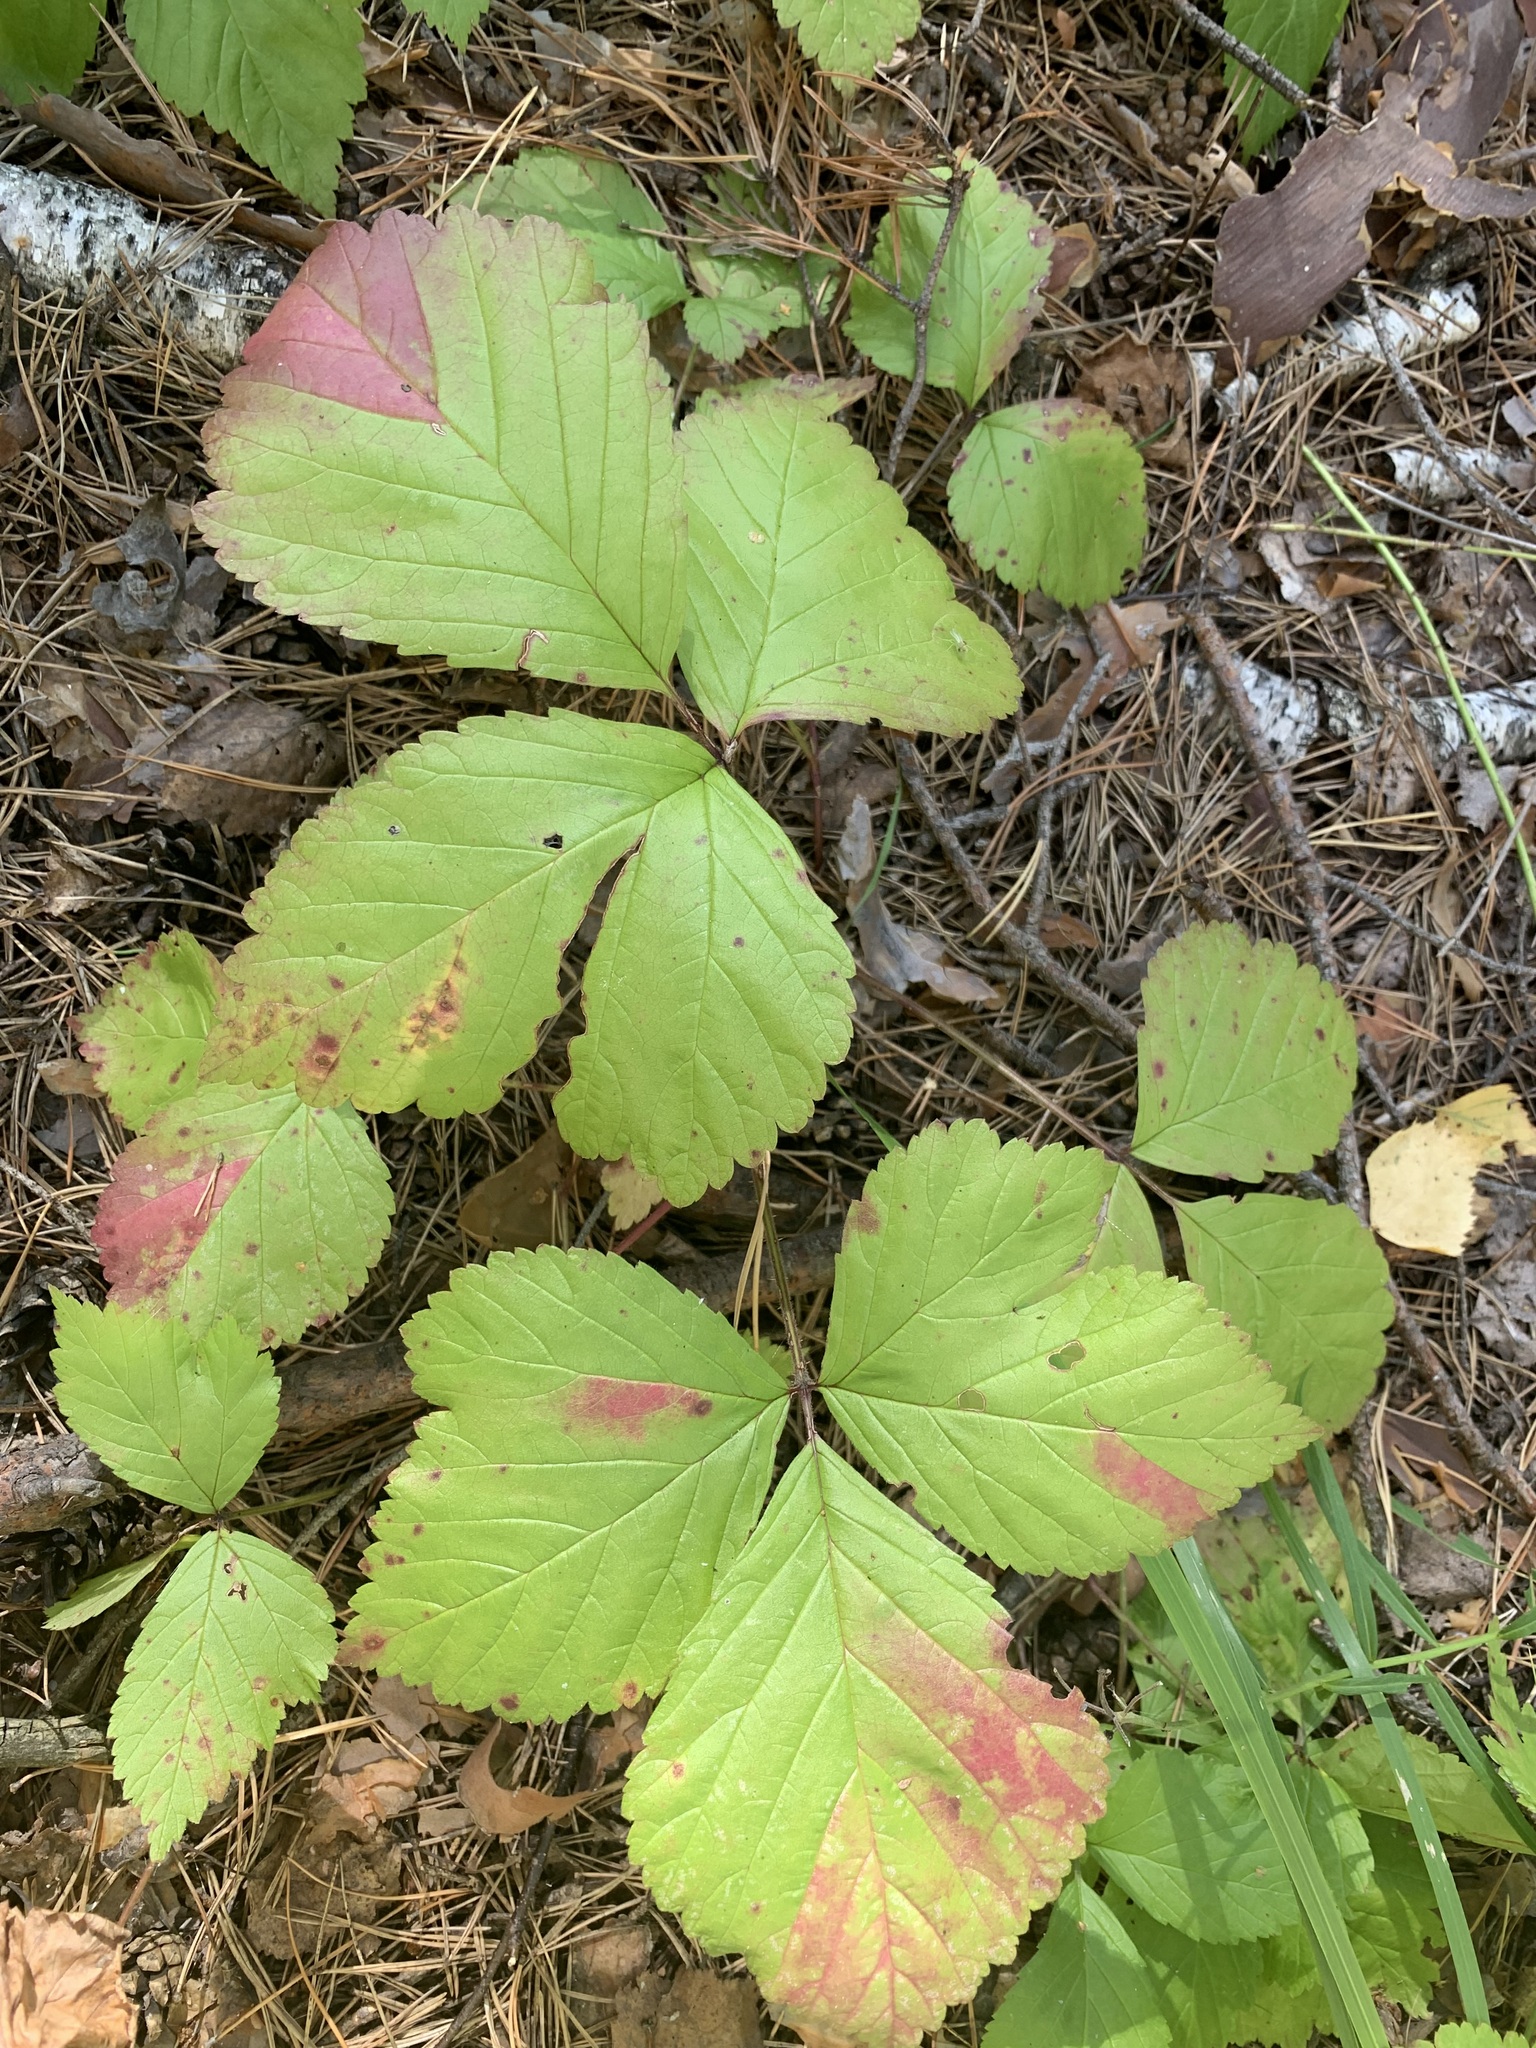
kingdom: Plantae
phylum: Tracheophyta
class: Magnoliopsida
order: Rosales
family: Rosaceae
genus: Rubus
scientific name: Rubus saxatilis
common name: Stone bramble
